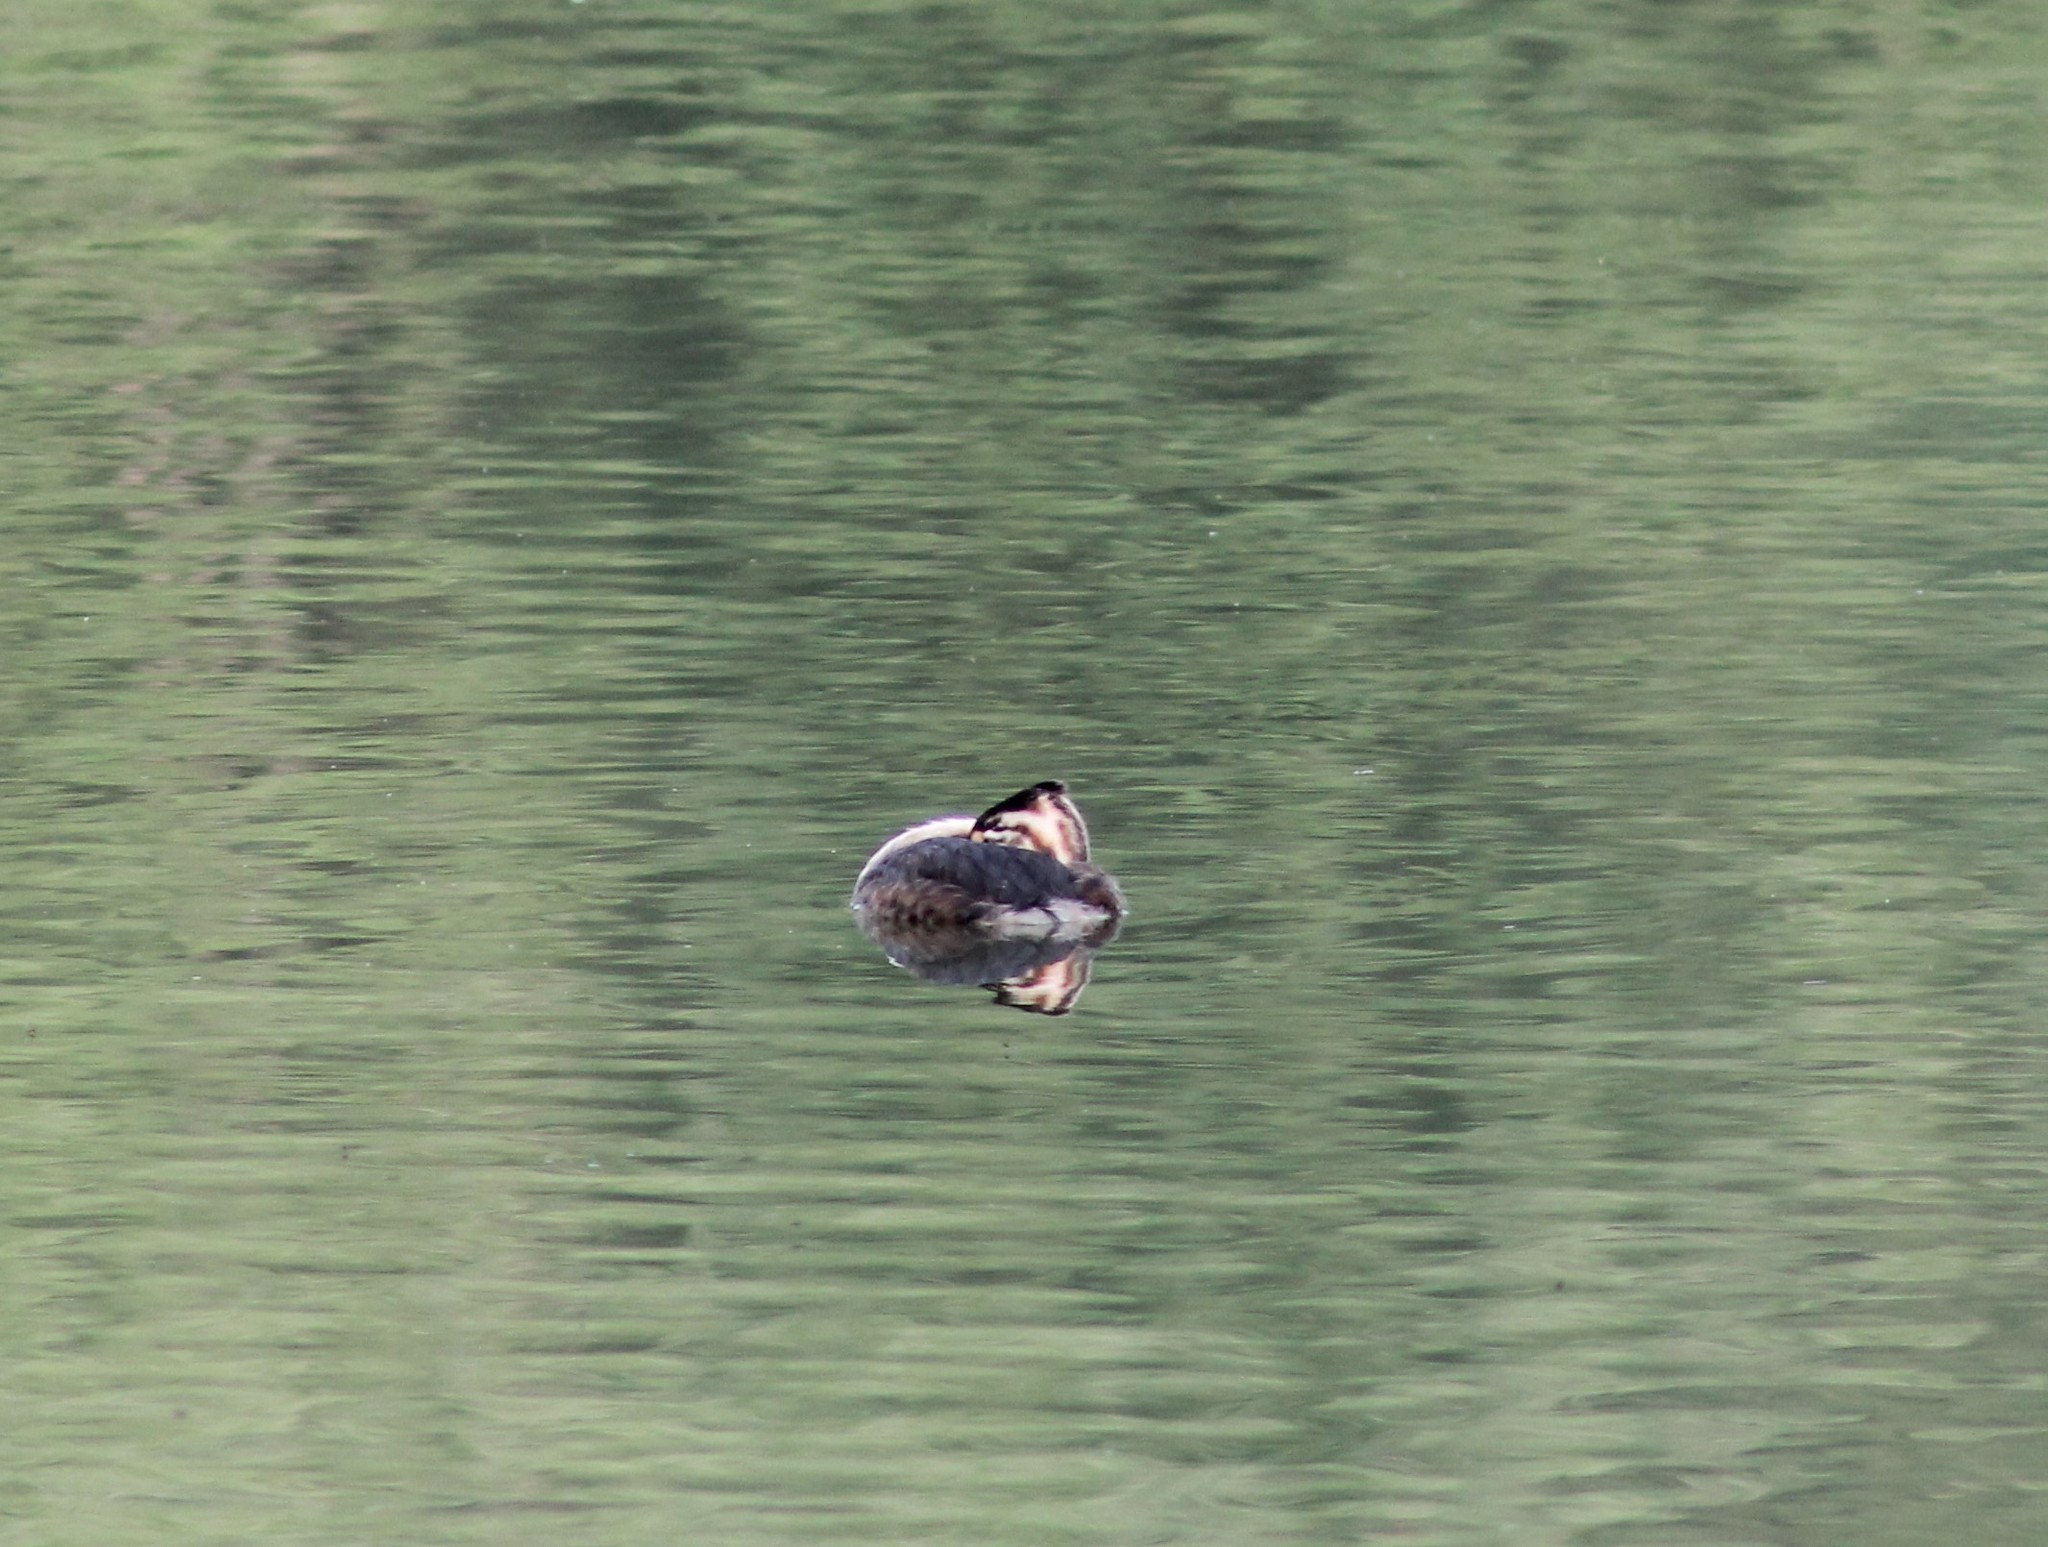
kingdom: Animalia
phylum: Chordata
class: Aves
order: Podicipediformes
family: Podicipedidae
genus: Podiceps
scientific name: Podiceps cristatus
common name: Great crested grebe
